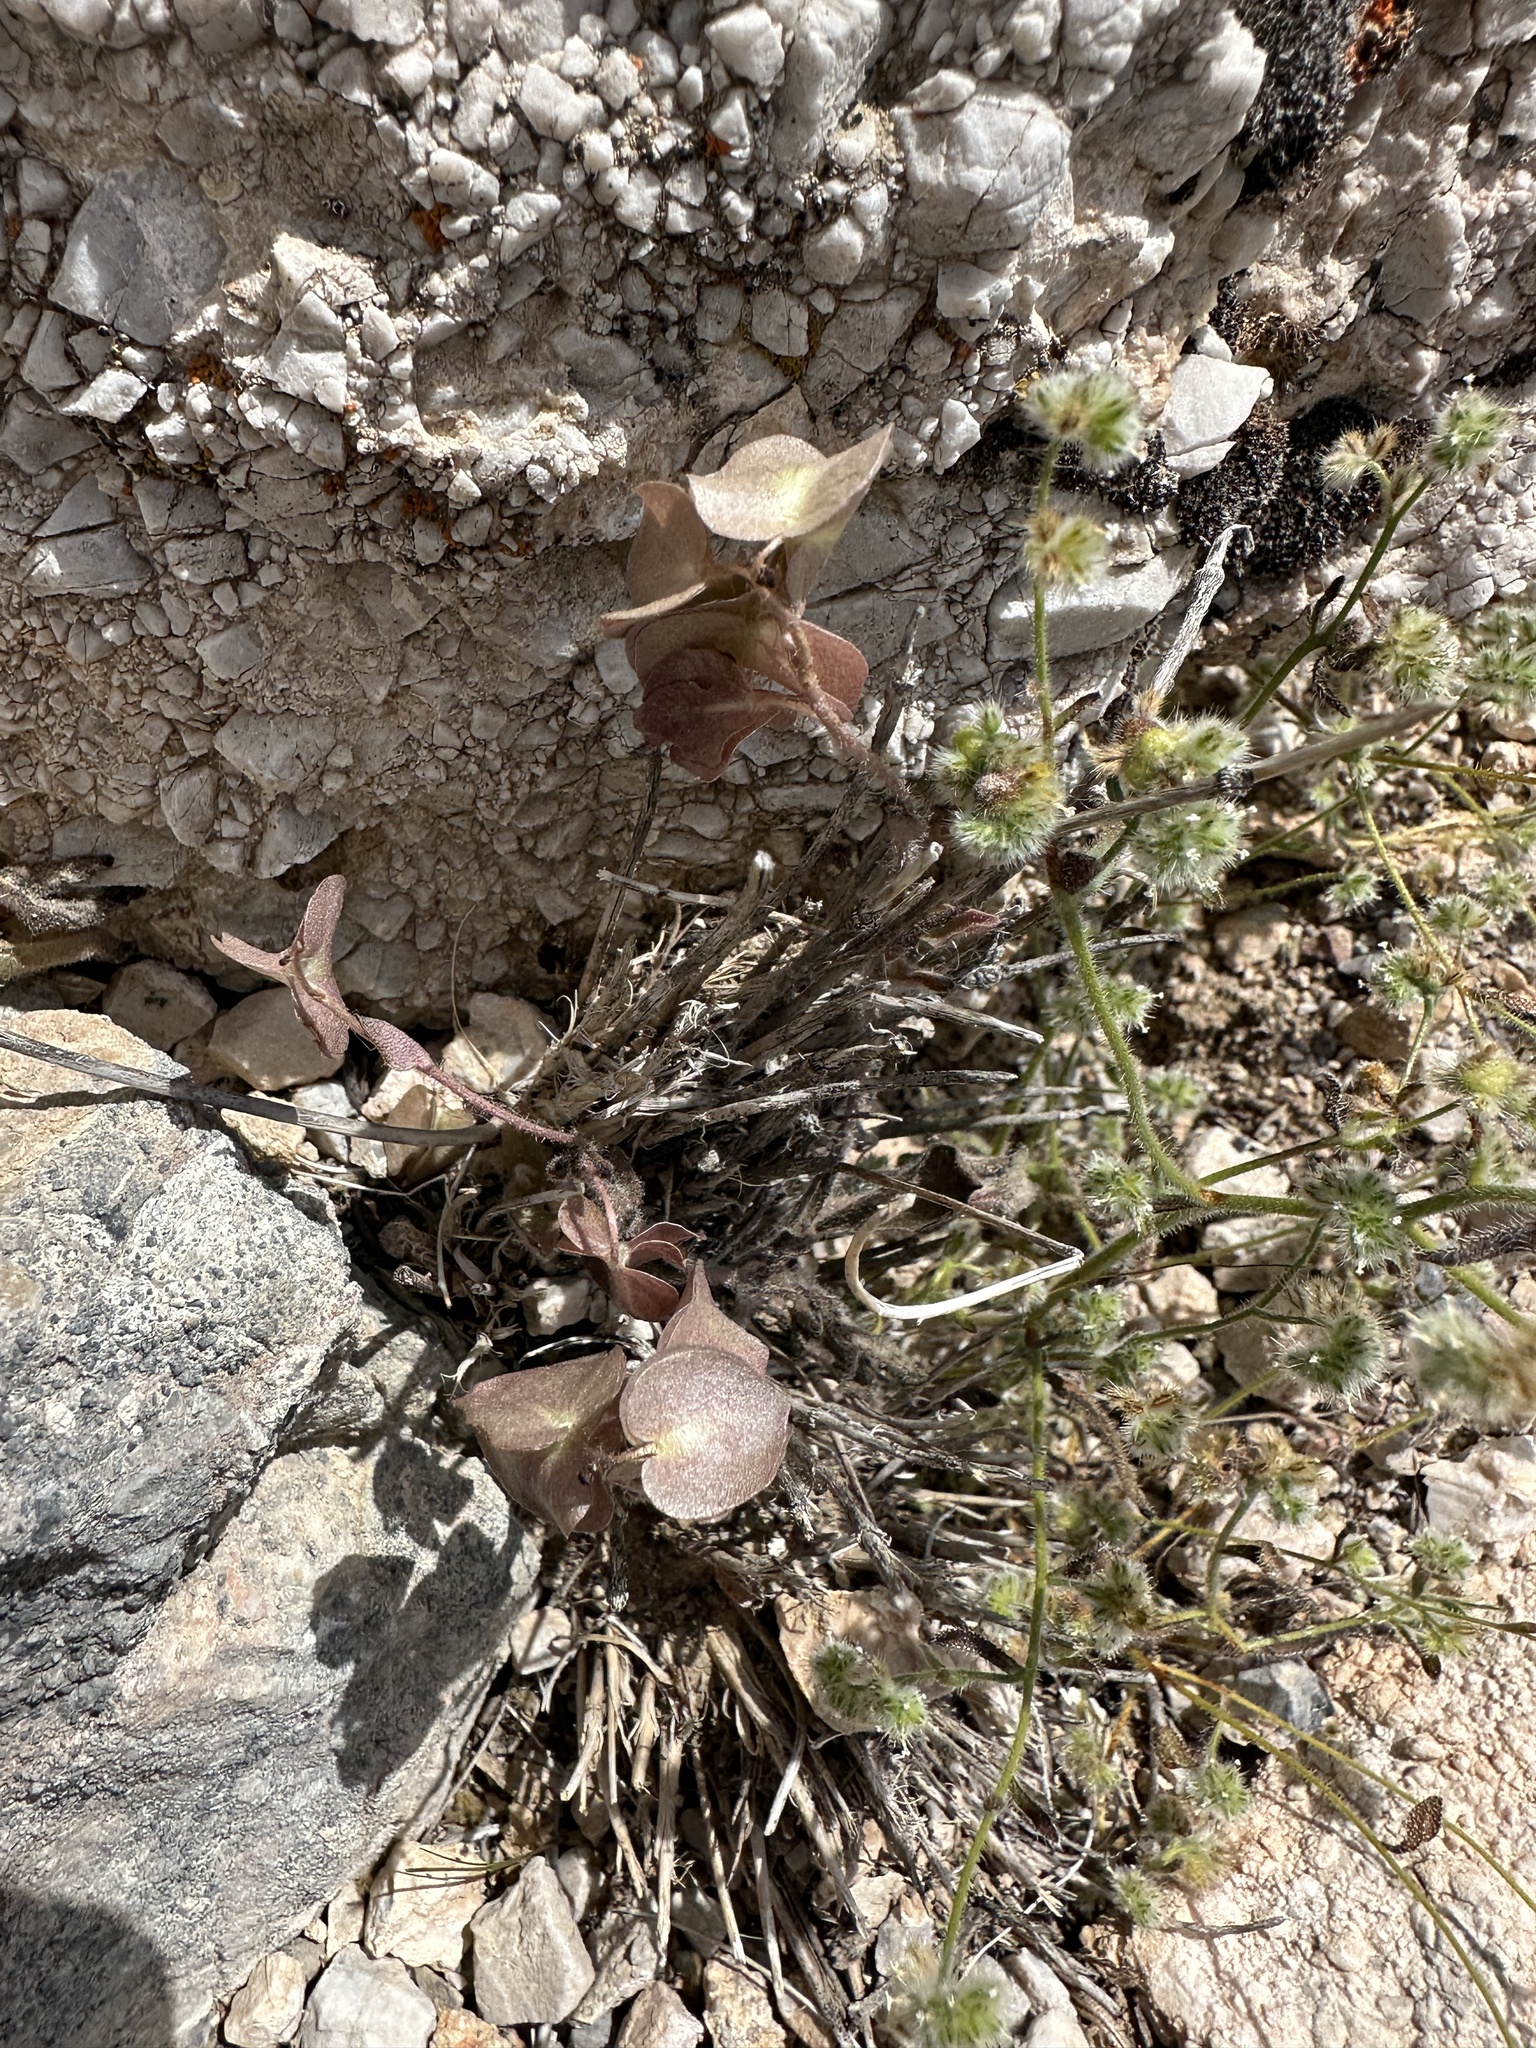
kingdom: Plantae
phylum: Tracheophyta
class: Magnoliopsida
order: Boraginales
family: Hydrophyllaceae
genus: Tricardia
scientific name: Tricardia watsonii
